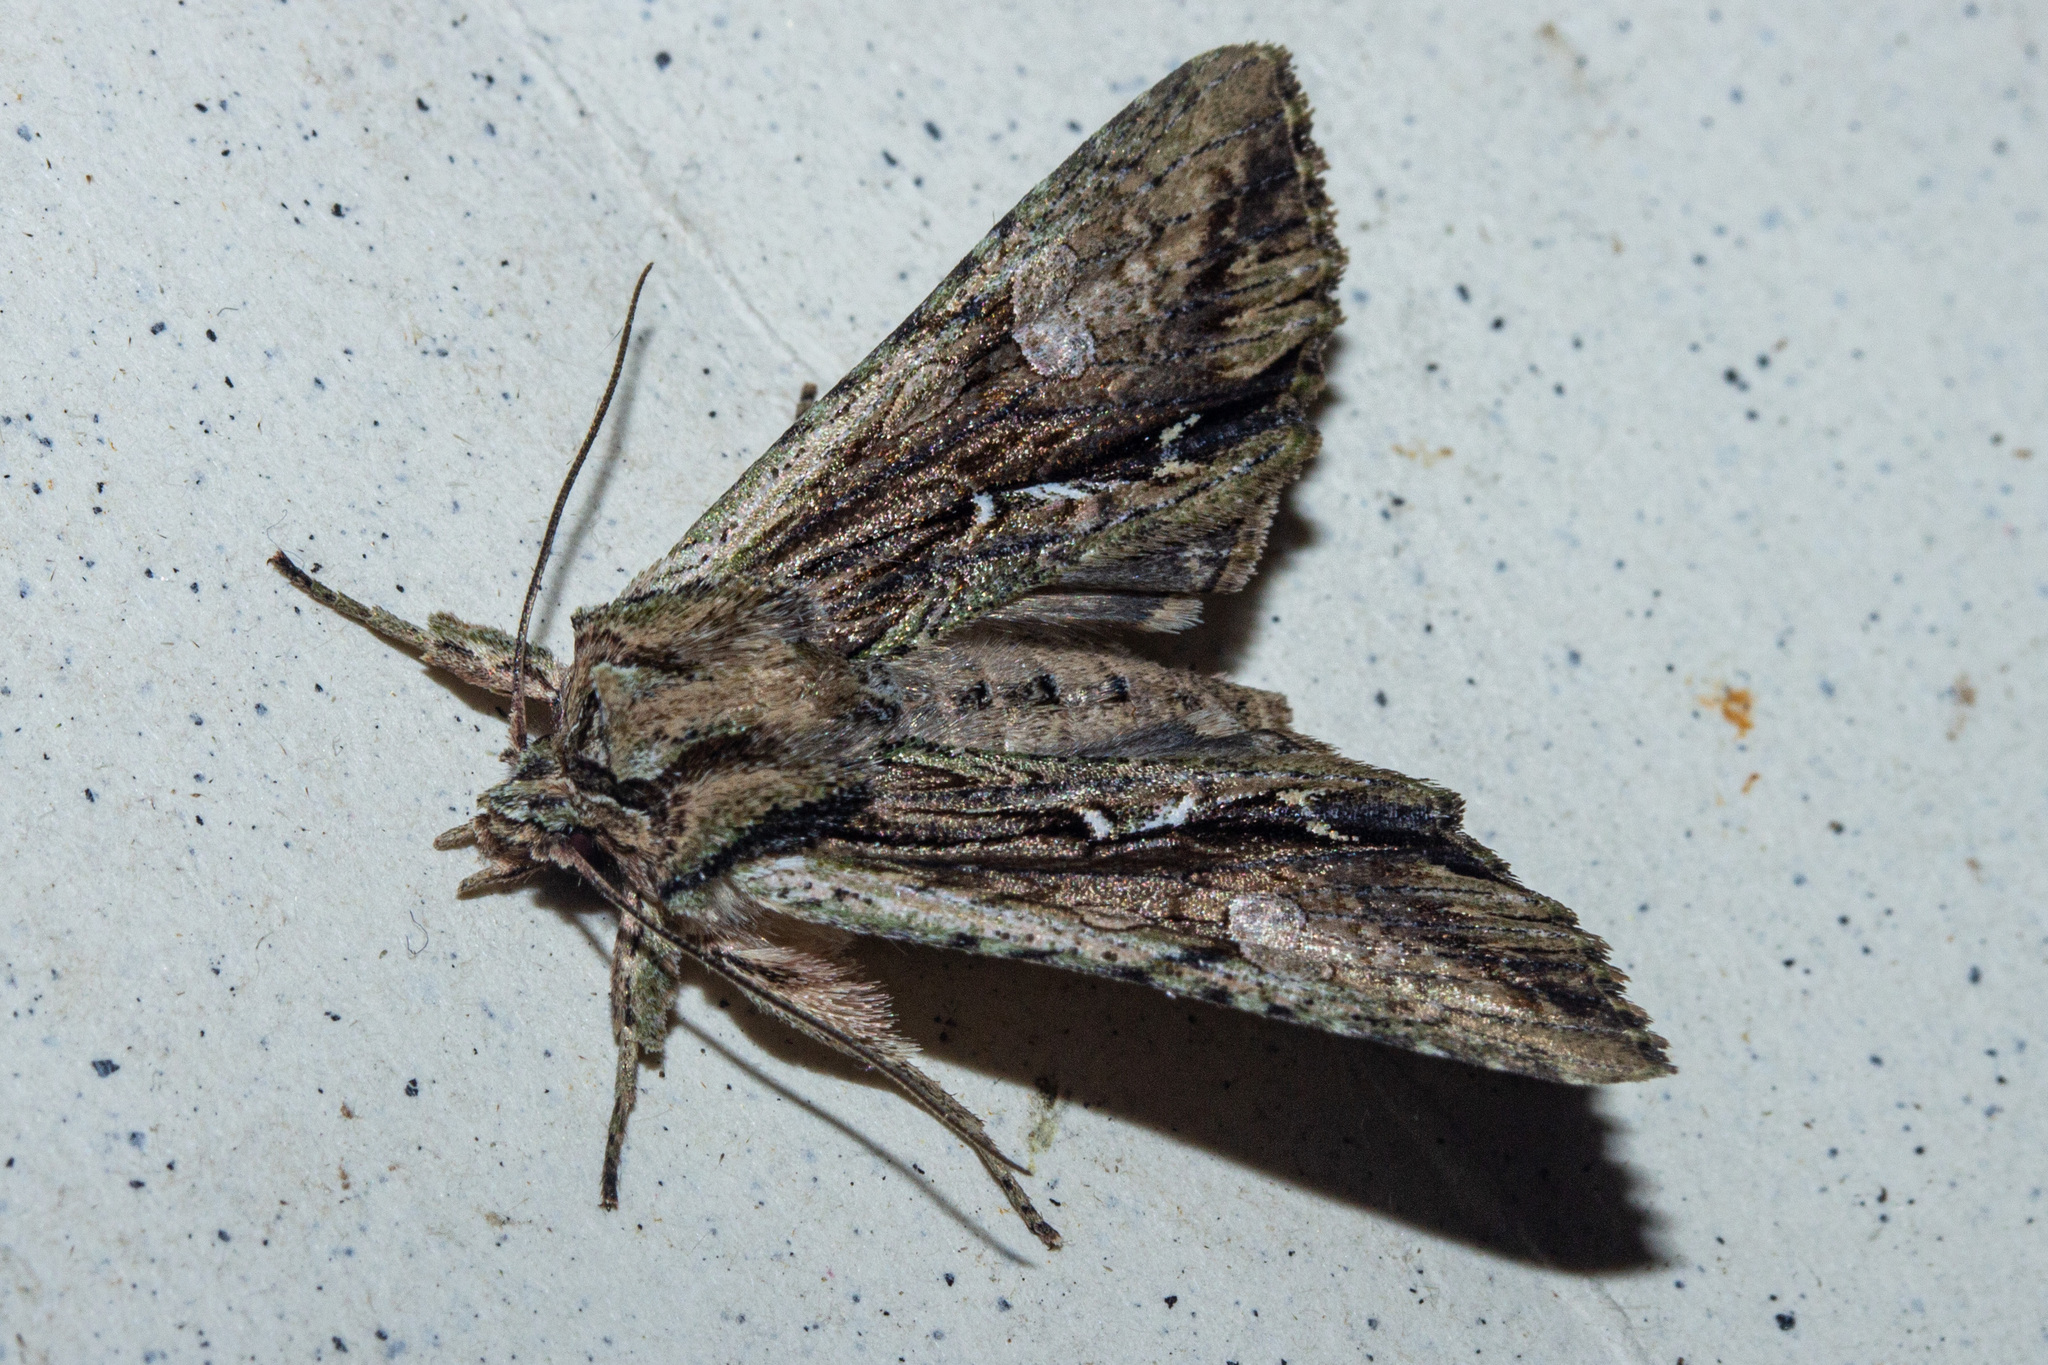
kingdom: Animalia
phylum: Arthropoda
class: Insecta
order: Lepidoptera
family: Noctuidae
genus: Meterana
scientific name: Meterana decorata
